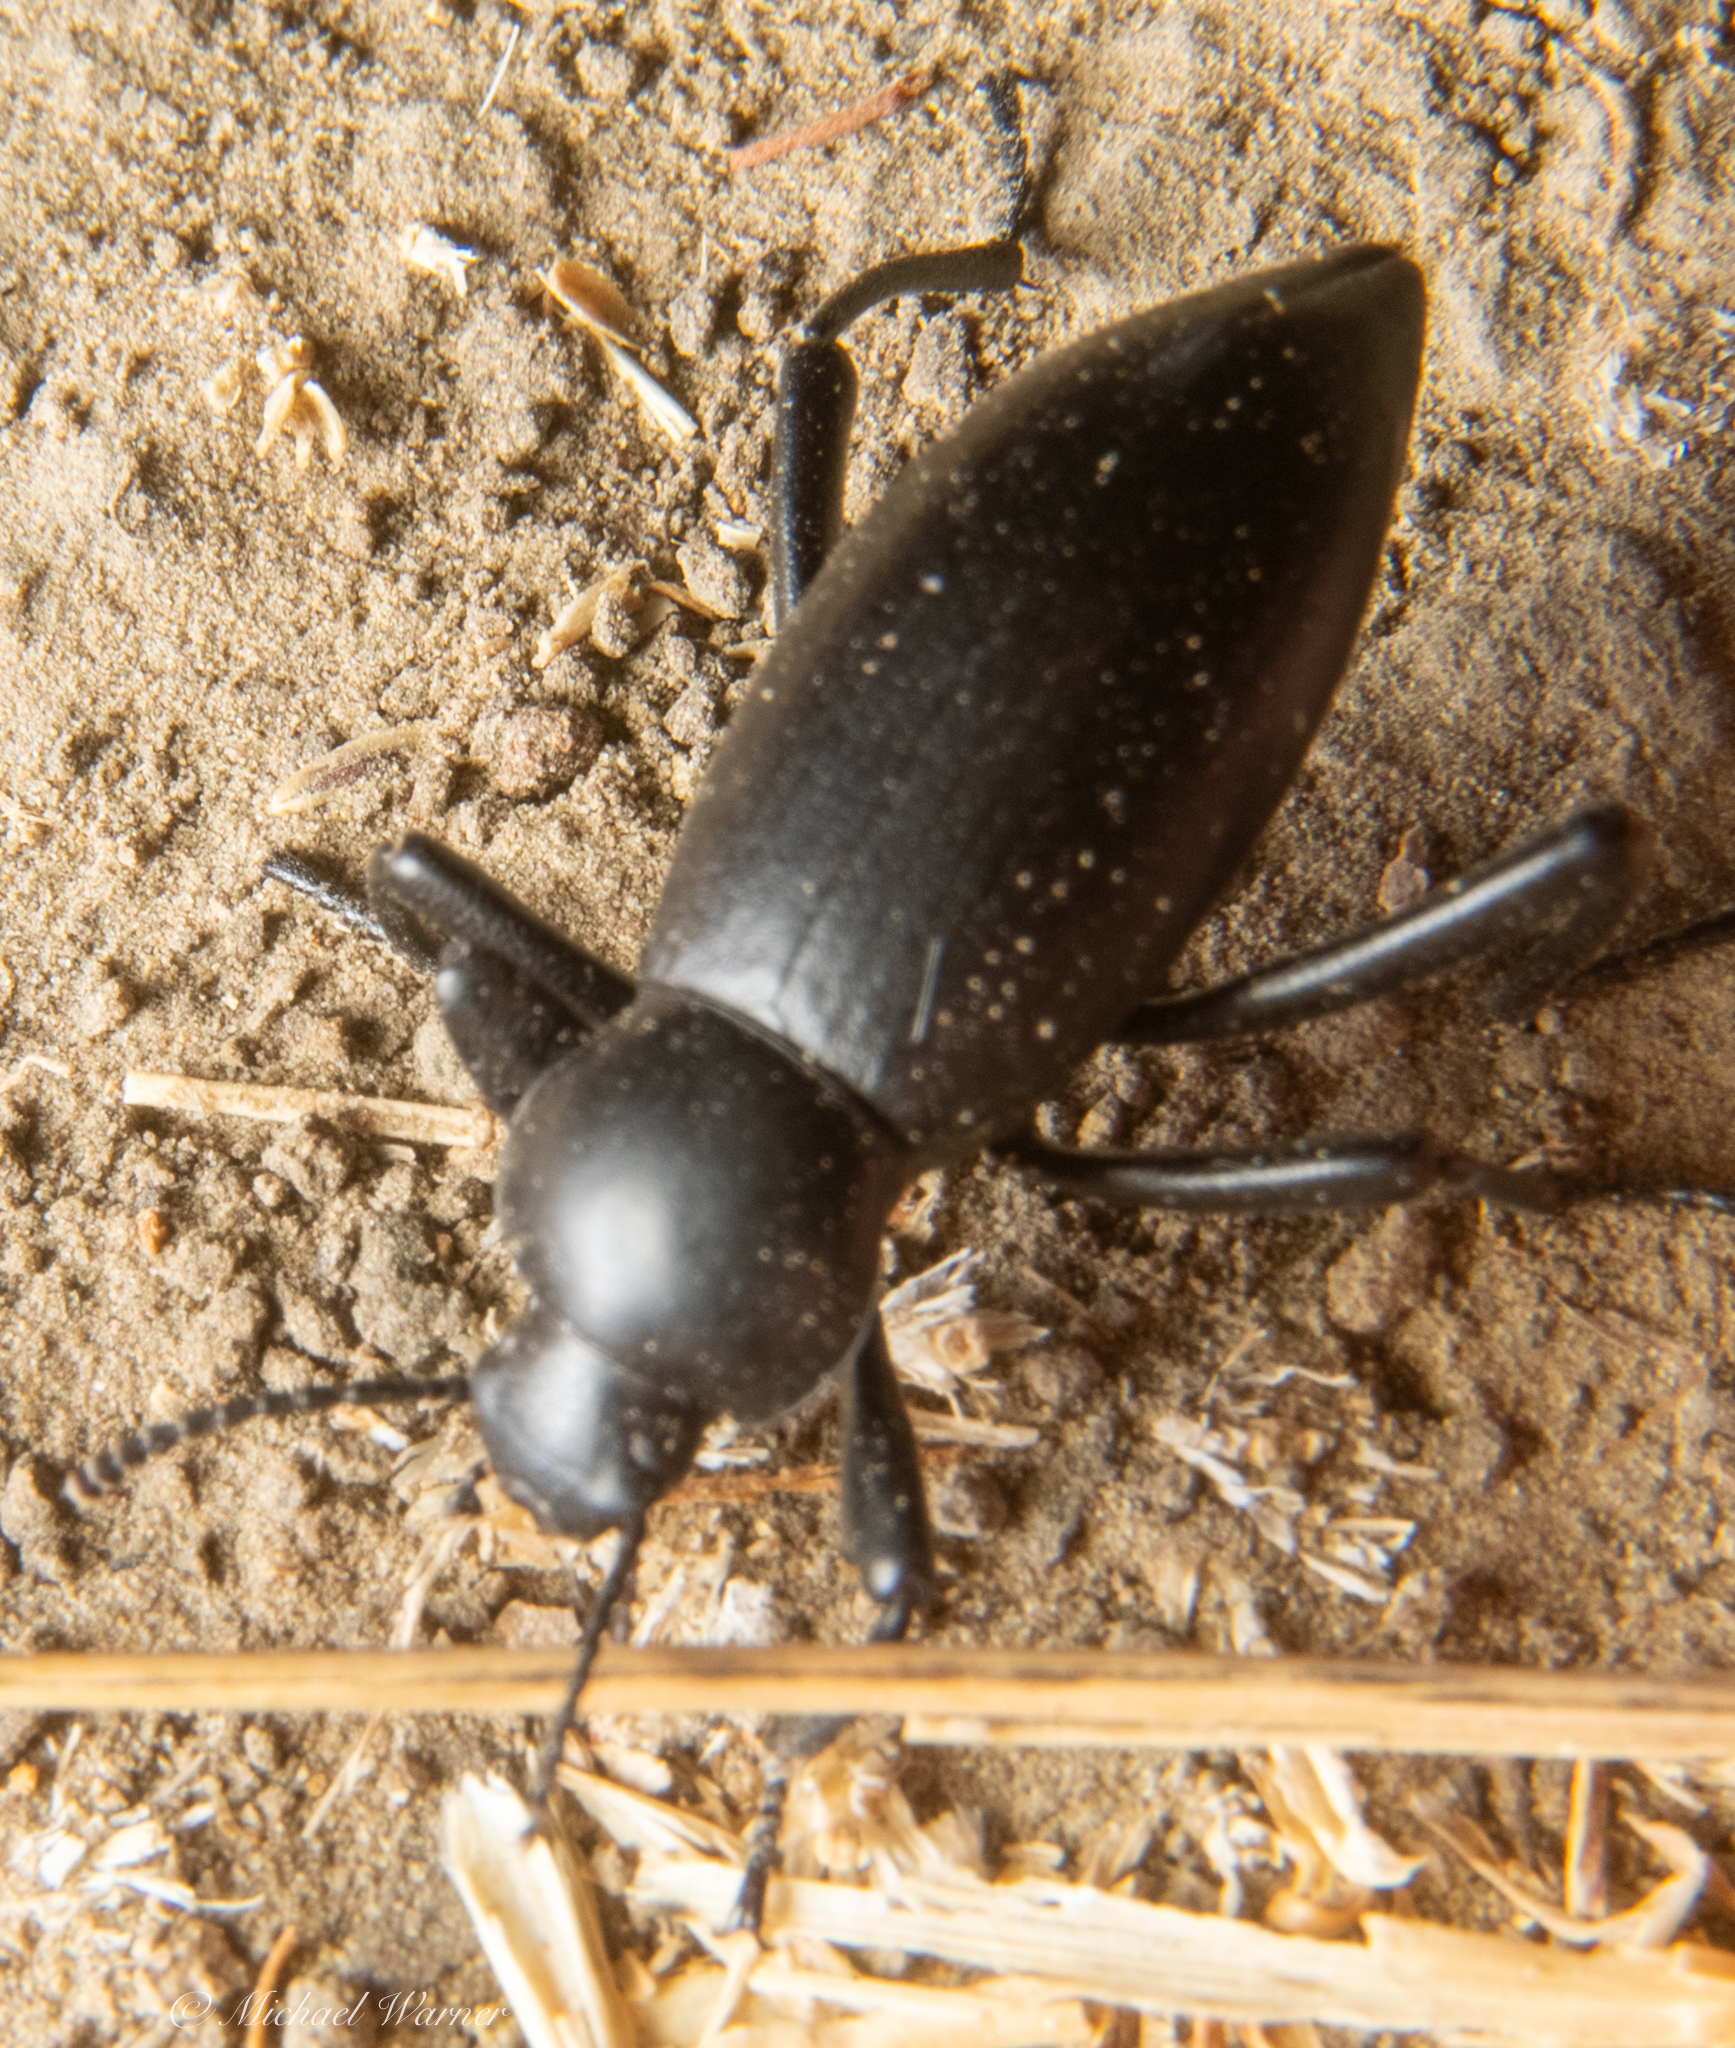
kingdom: Animalia
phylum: Arthropoda
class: Insecta
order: Coleoptera
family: Tenebrionidae
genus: Eleodes
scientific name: Eleodes dentipes
